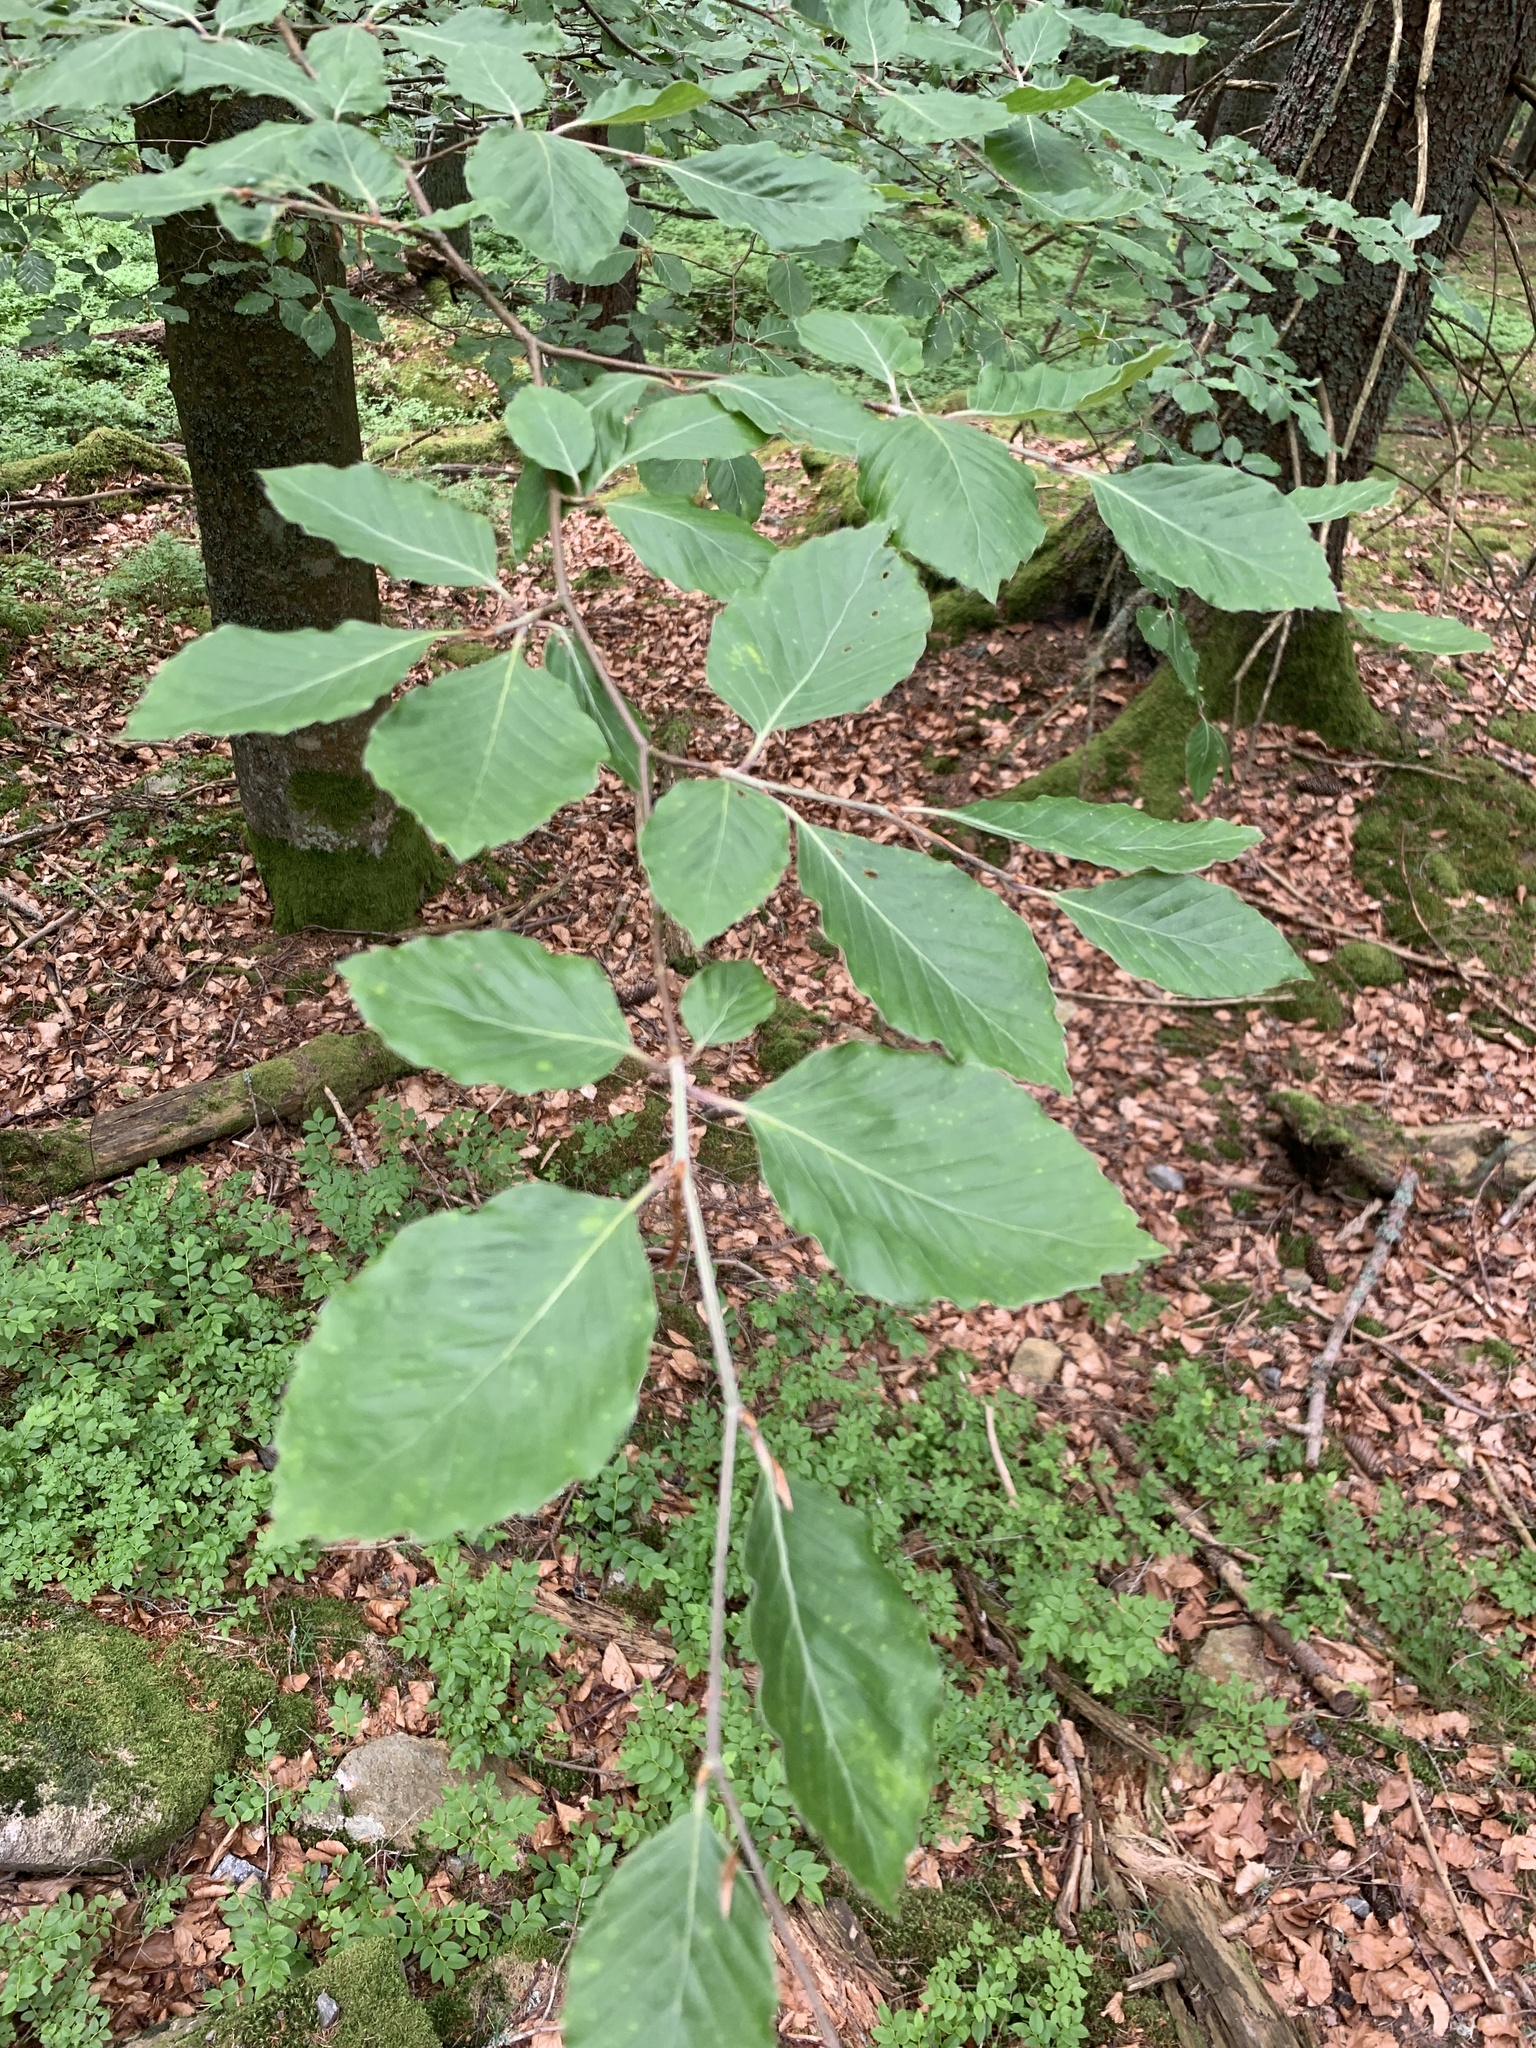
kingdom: Plantae
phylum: Tracheophyta
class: Magnoliopsida
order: Fagales
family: Fagaceae
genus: Fagus
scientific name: Fagus sylvatica
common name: Beech
